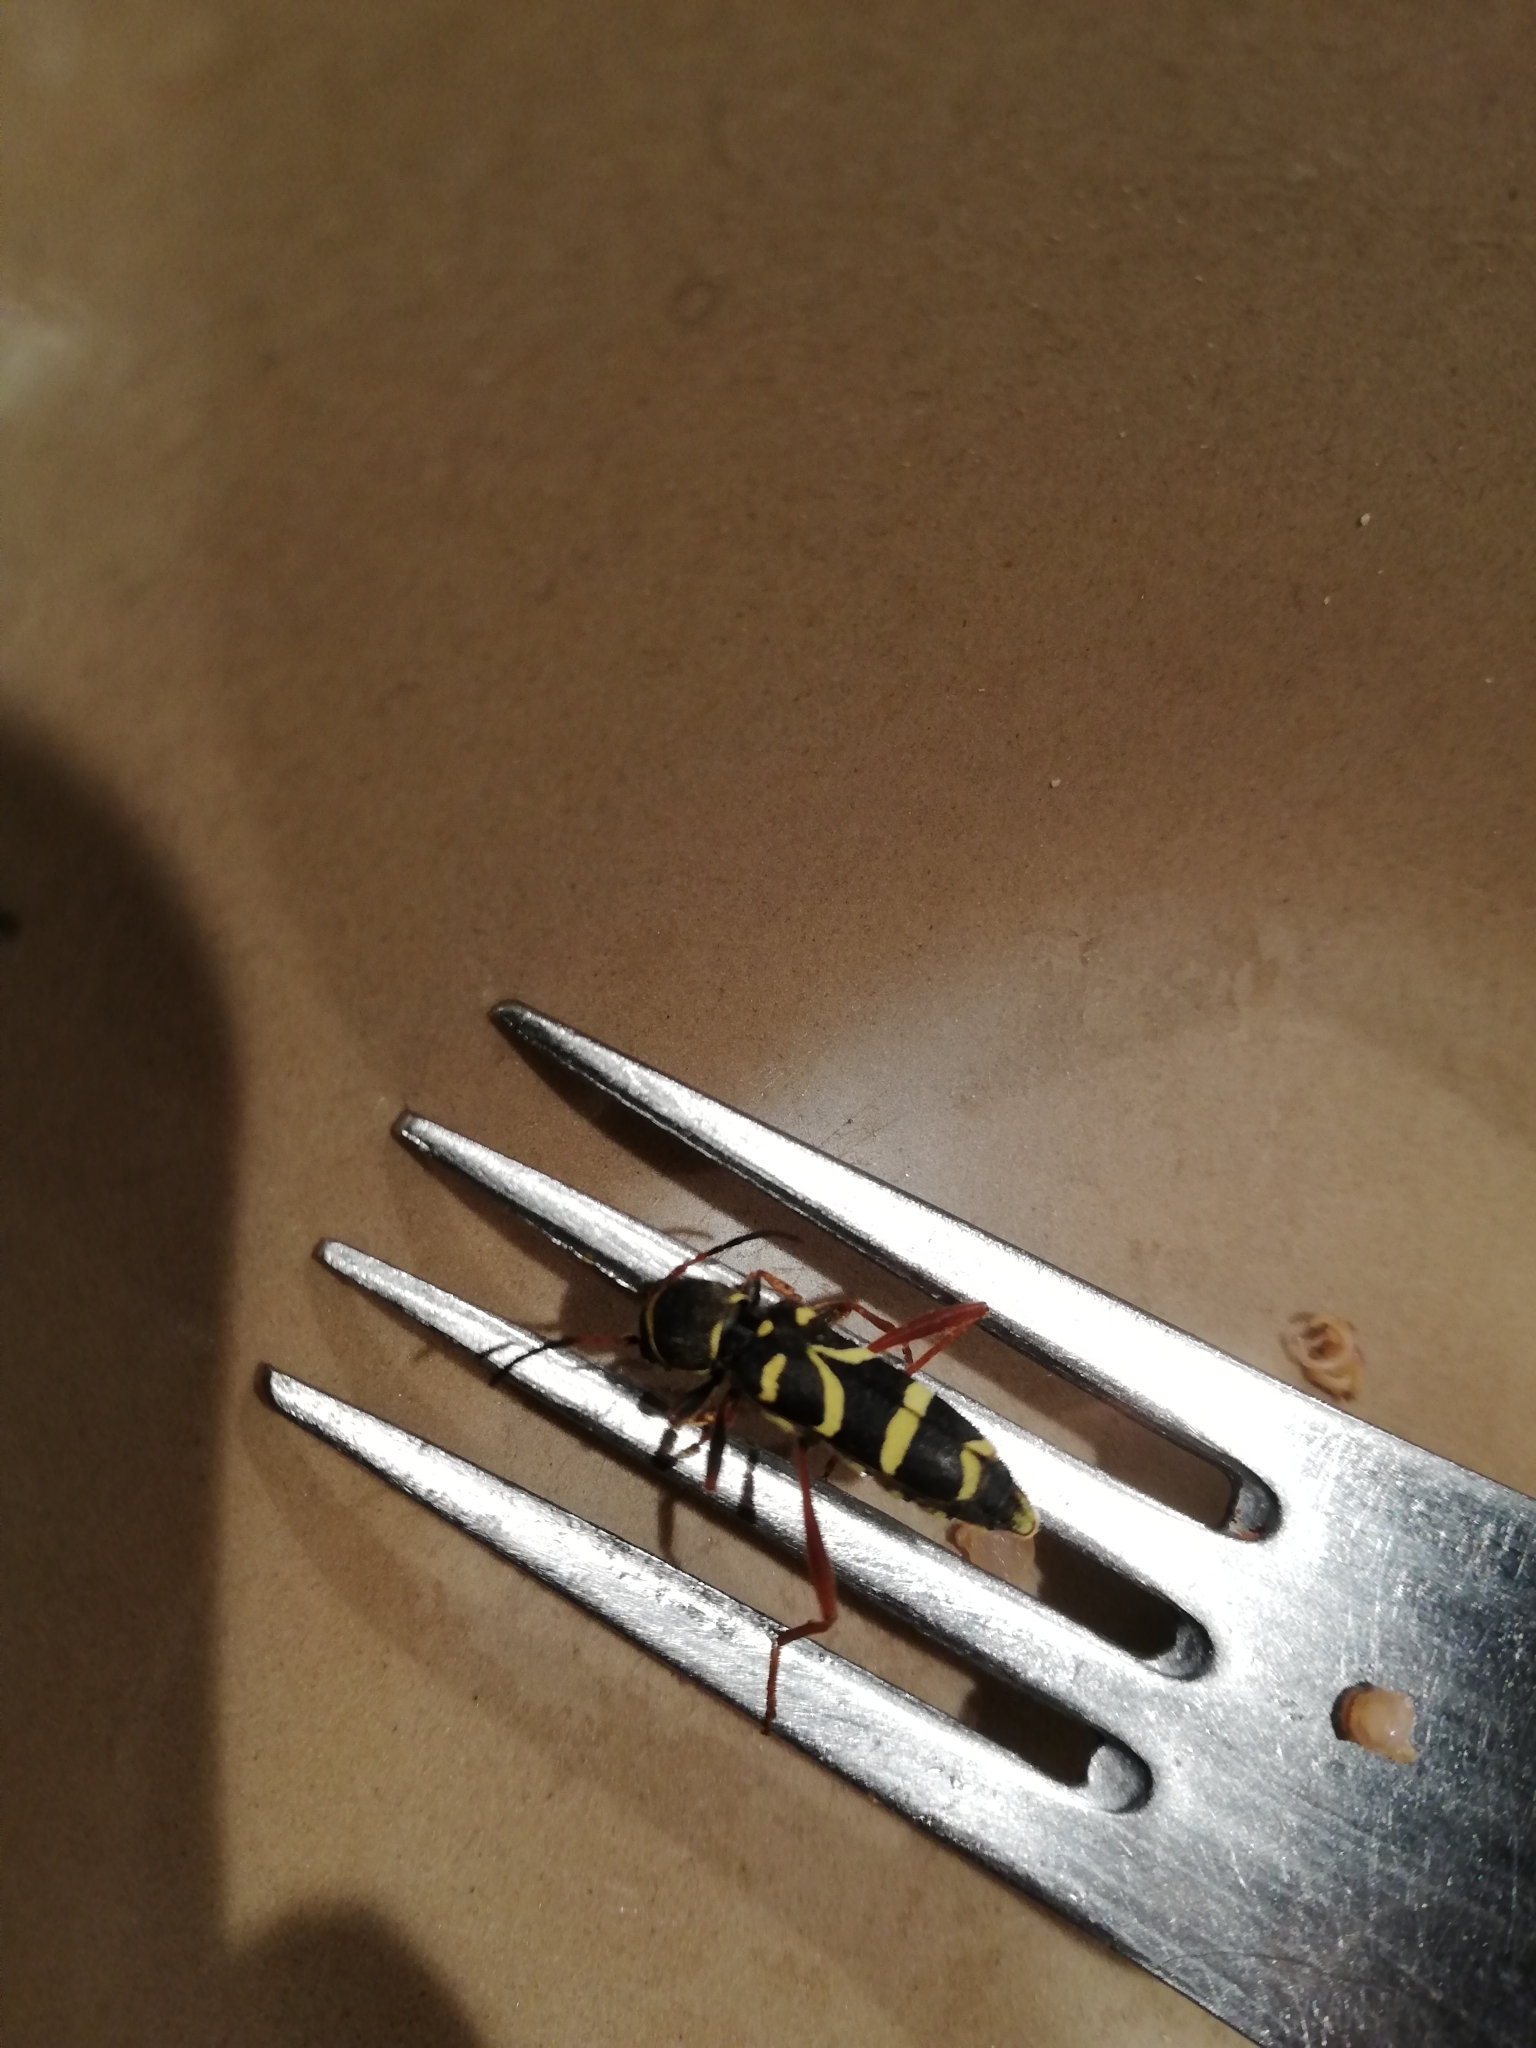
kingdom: Animalia
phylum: Arthropoda
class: Insecta
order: Coleoptera
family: Cerambycidae
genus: Clytus
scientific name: Clytus arietis
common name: Wasp beetle
